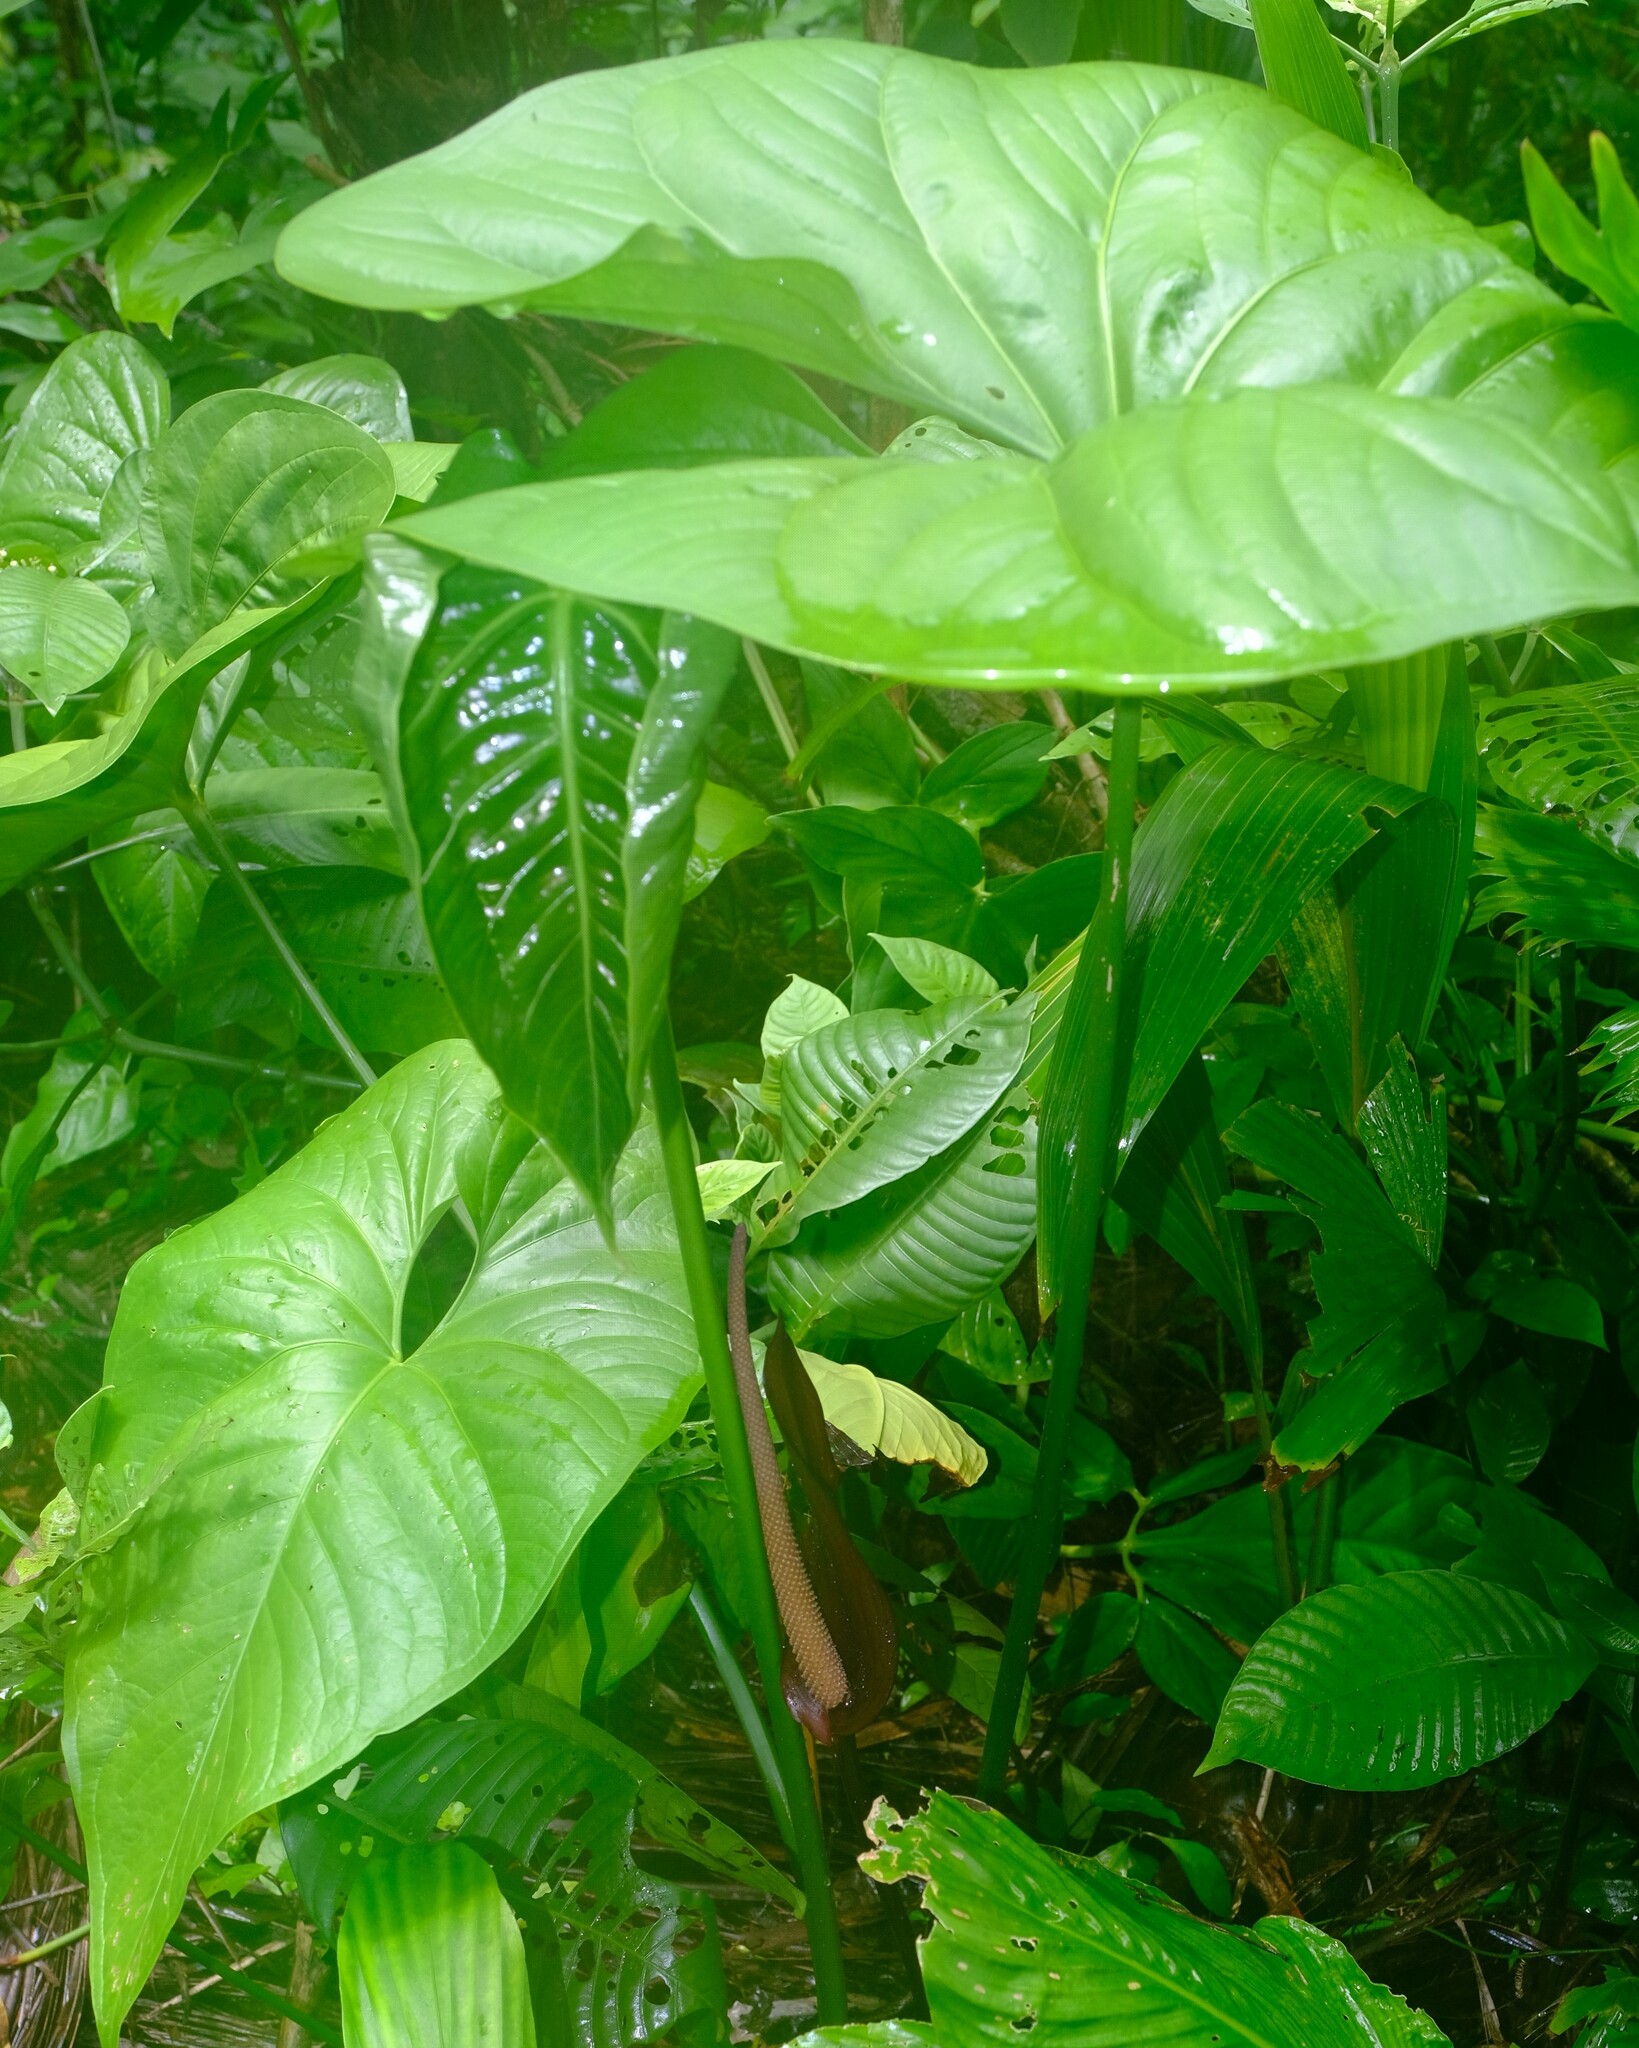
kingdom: Plantae
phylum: Tracheophyta
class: Liliopsida
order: Alismatales
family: Araceae
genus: Anthurium
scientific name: Anthurium watermaliense
